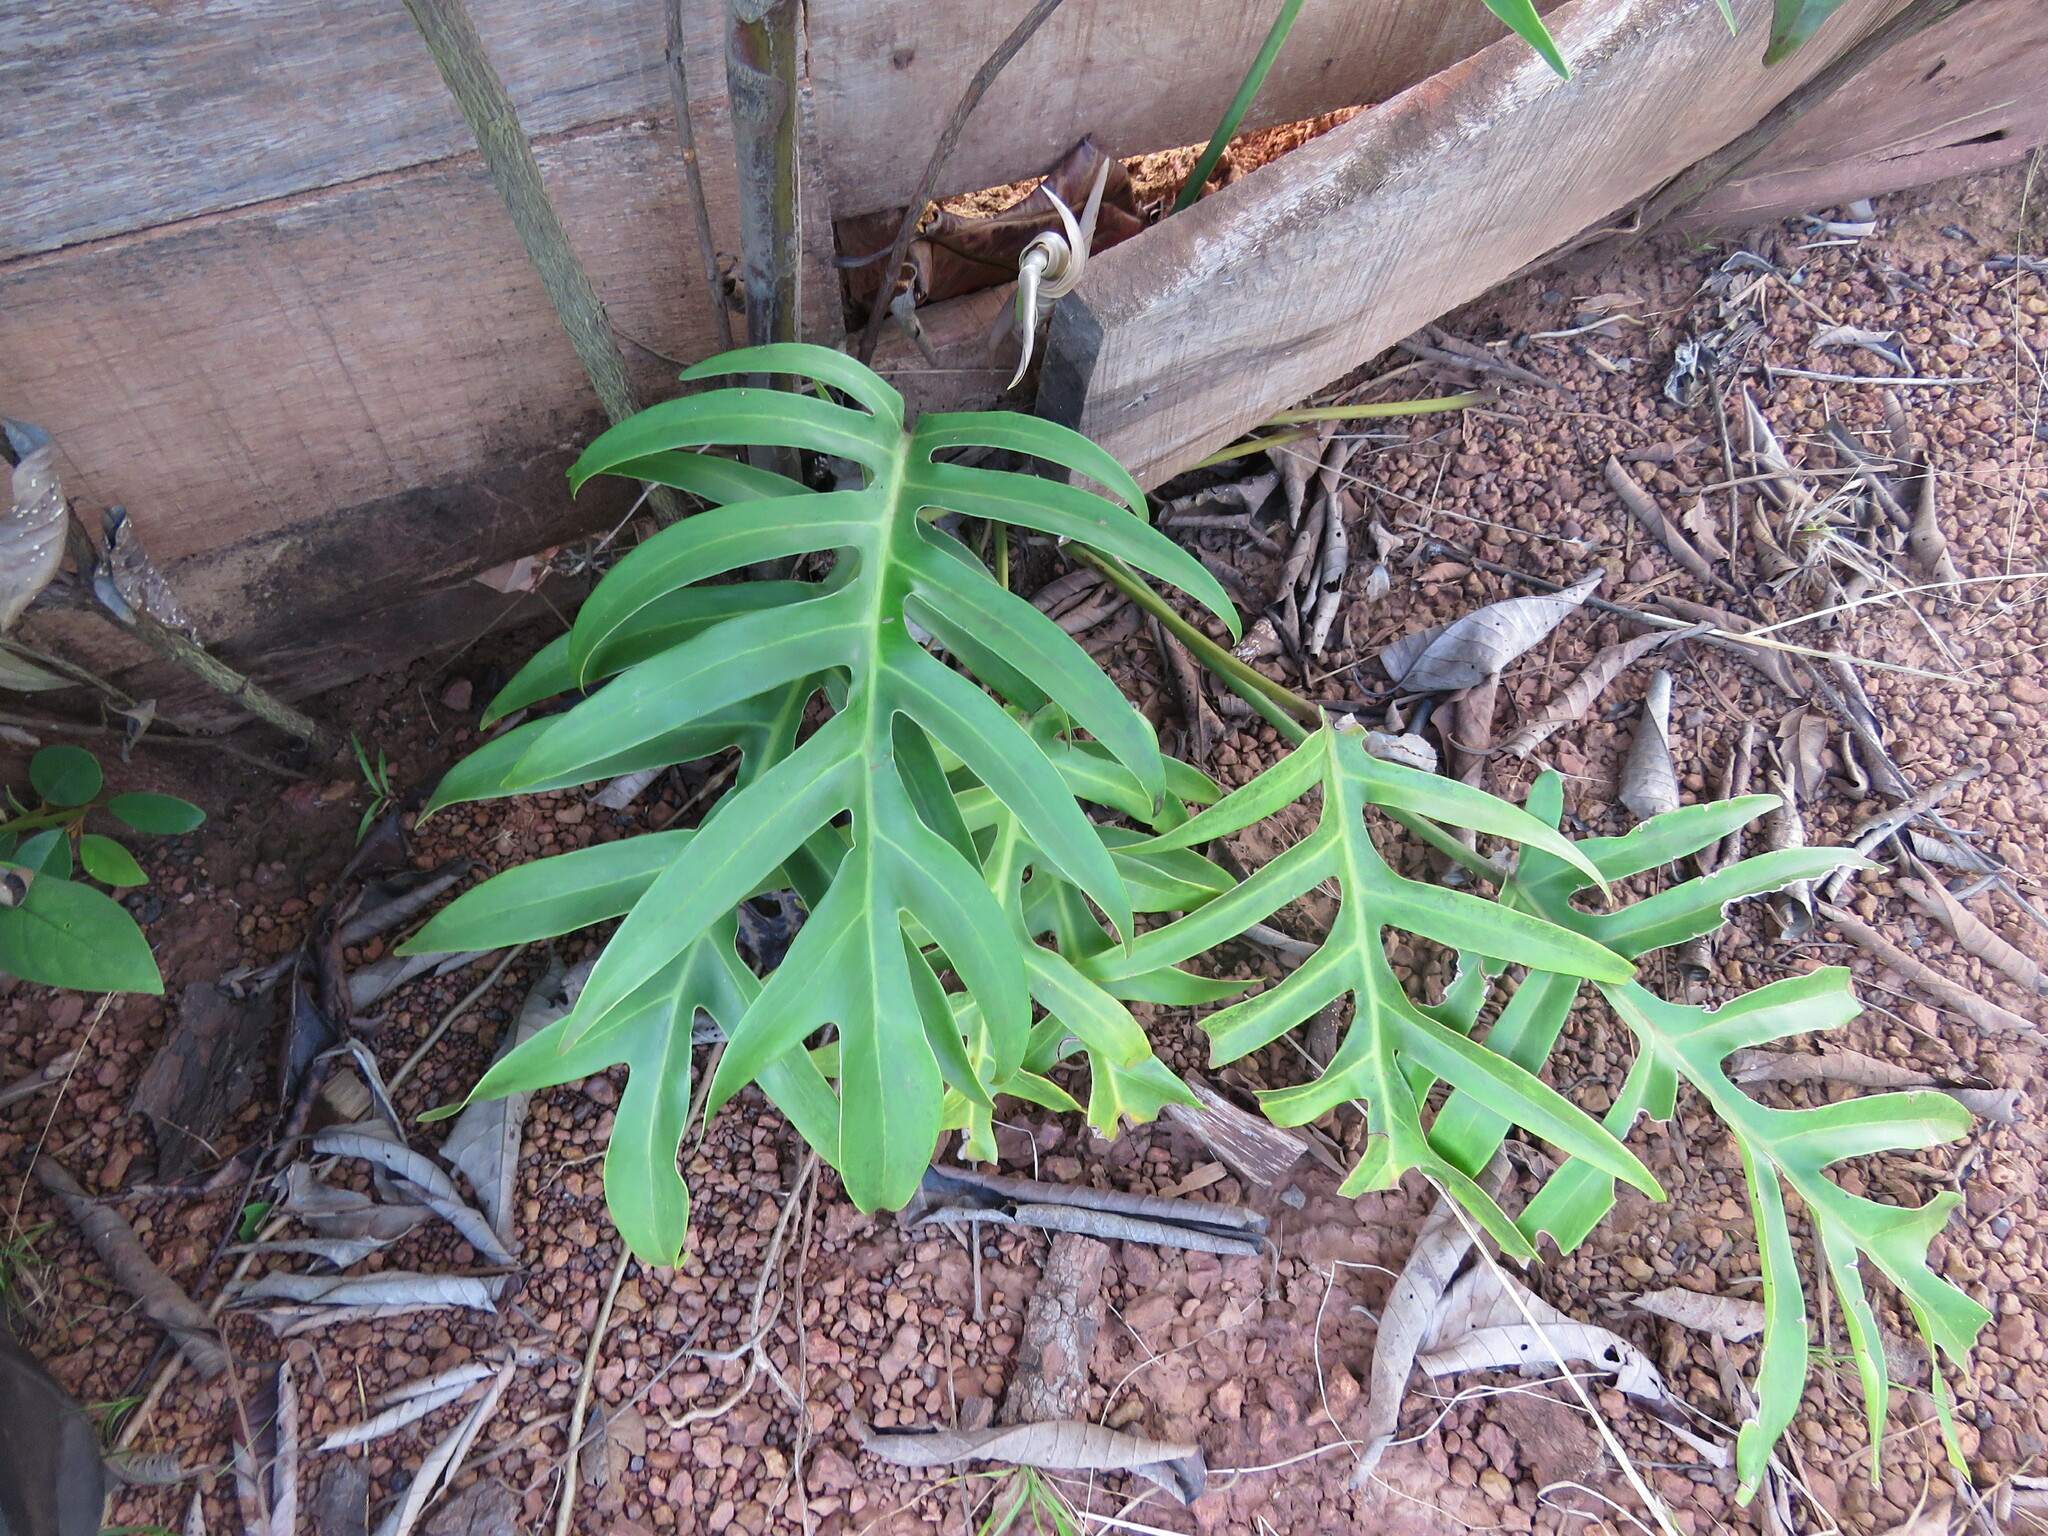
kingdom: Plantae
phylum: Tracheophyta
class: Liliopsida
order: Alismatales
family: Araceae
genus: Philodendron
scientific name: Philodendron distantilobum
